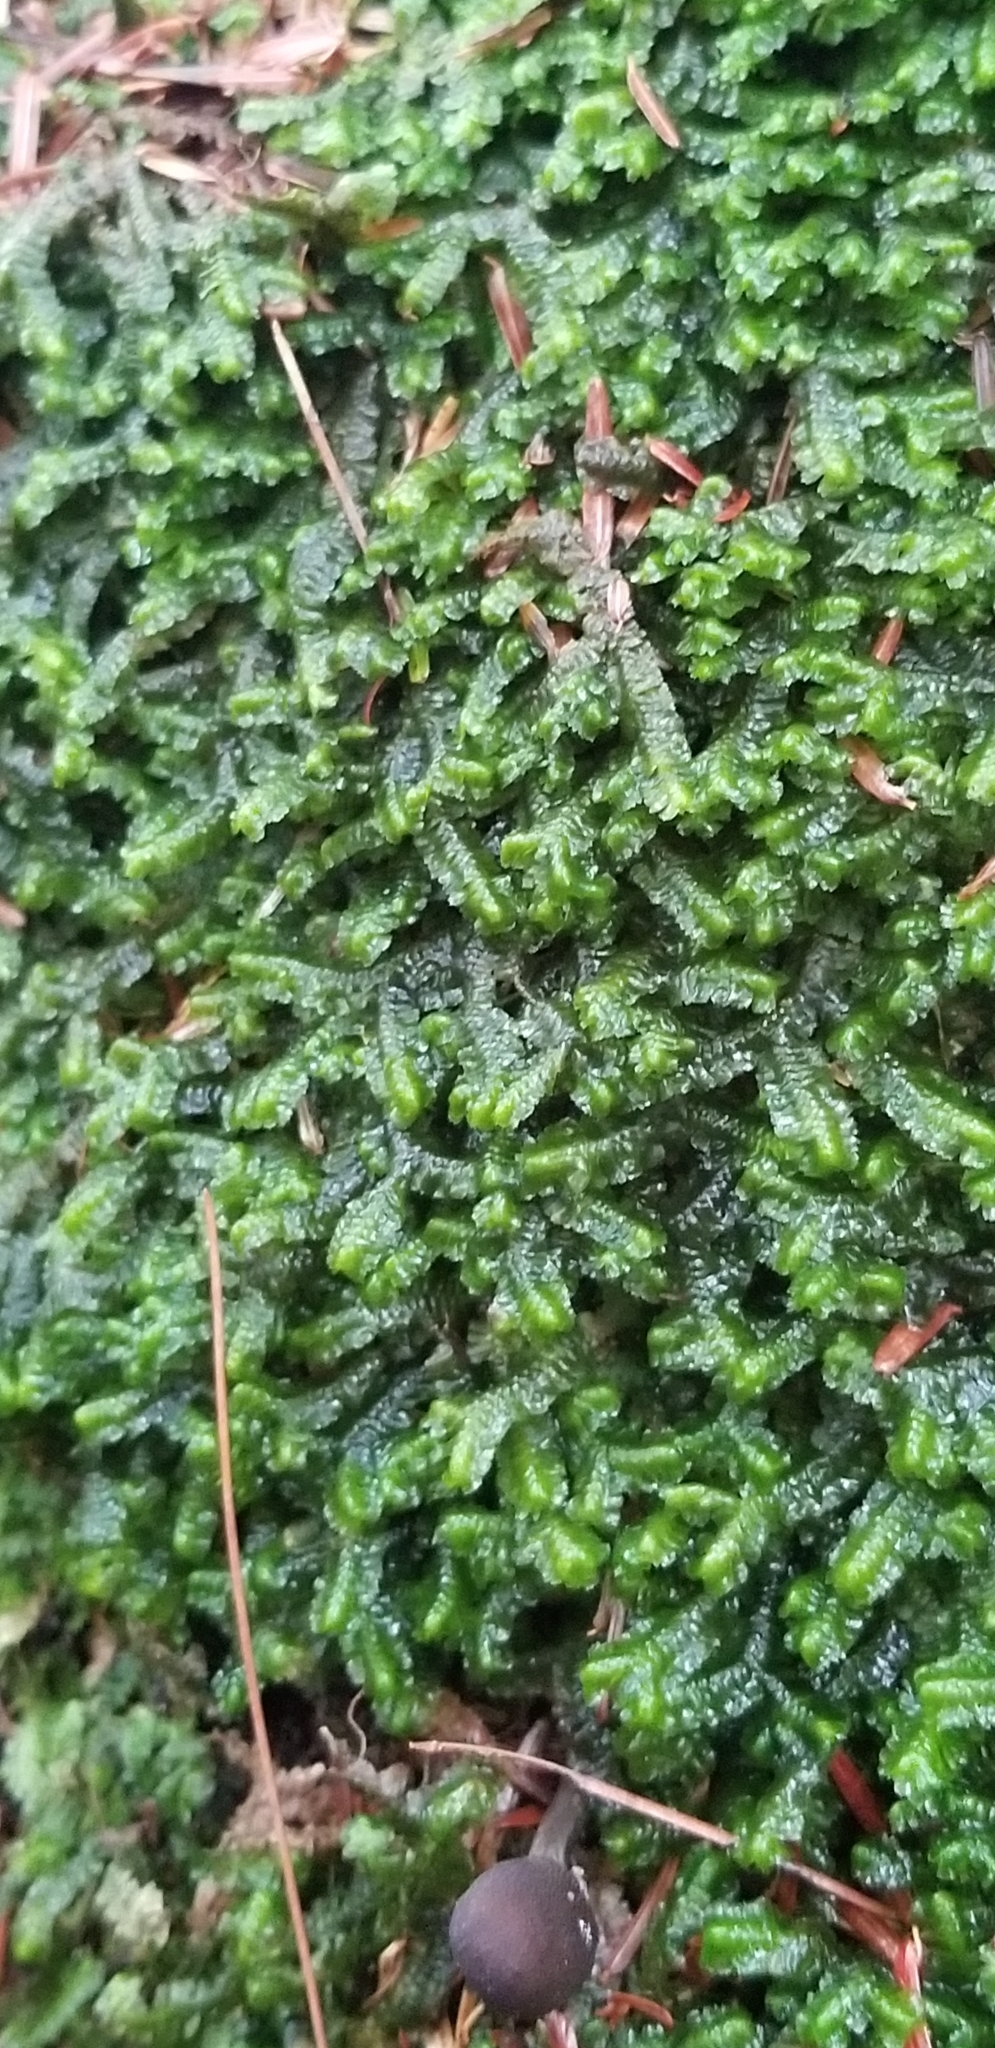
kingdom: Plantae
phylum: Marchantiophyta
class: Jungermanniopsida
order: Jungermanniales
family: Lepidoziaceae
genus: Bazzania
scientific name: Bazzania trilobata
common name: Three-lobed whipwort
